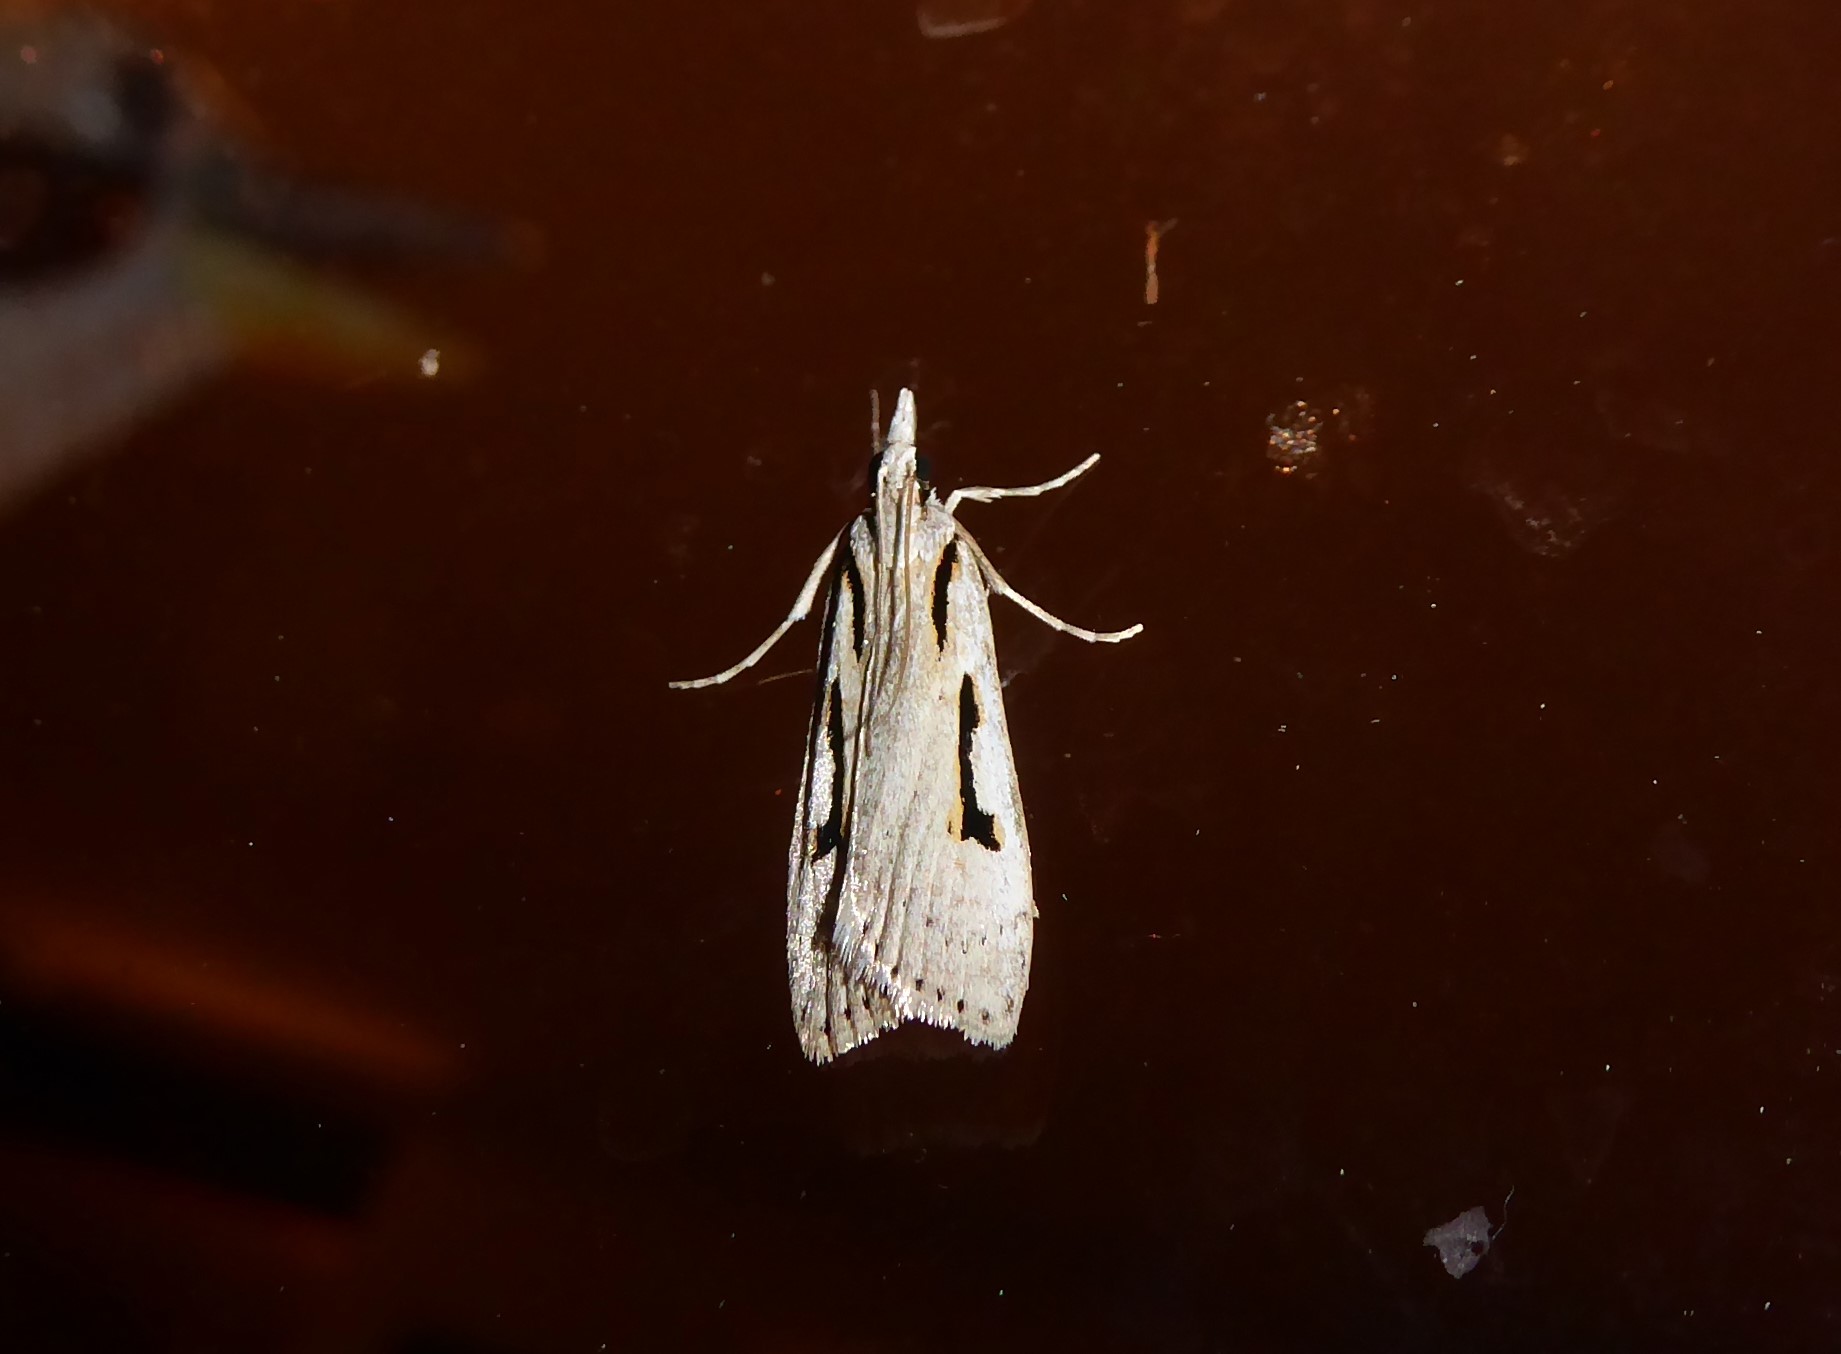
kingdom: Animalia
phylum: Arthropoda
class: Insecta
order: Lepidoptera
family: Crambidae
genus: Scoparia
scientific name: Scoparia rotuellus
